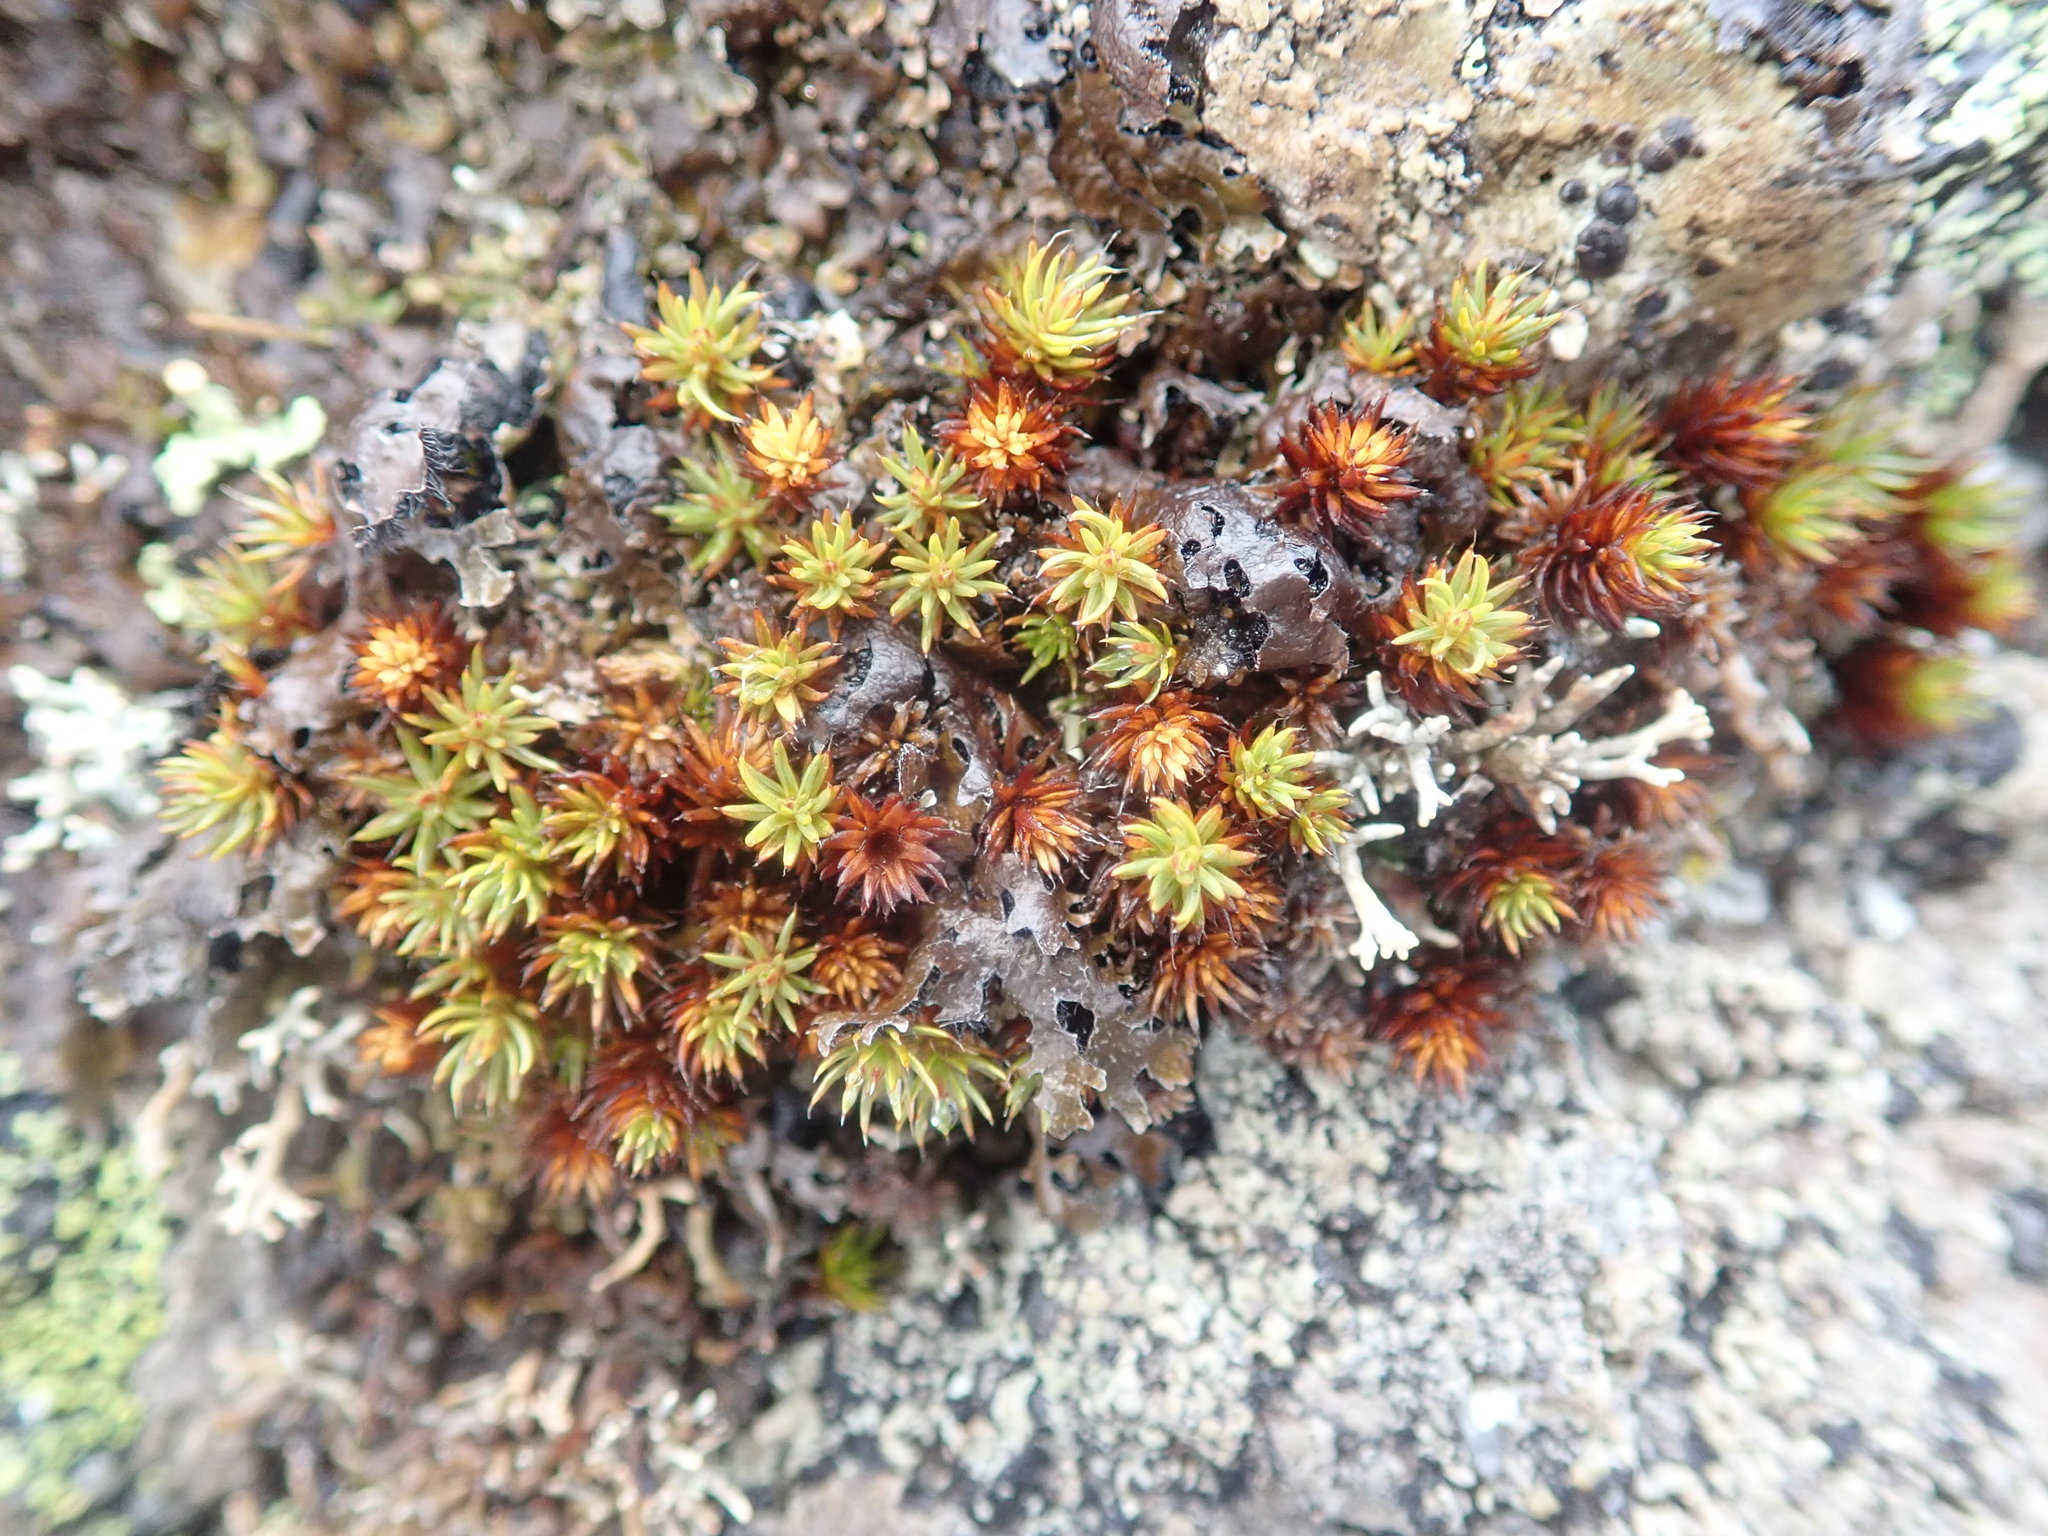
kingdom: Plantae
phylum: Bryophyta
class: Polytrichopsida
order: Polytrichales
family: Polytrichaceae
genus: Polytrichum
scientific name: Polytrichum piliferum
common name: Bristly haircap
